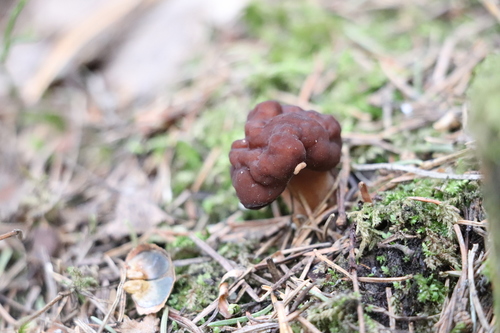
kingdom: Fungi
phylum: Ascomycota
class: Pezizomycetes
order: Pezizales
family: Discinaceae
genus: Gyromitra
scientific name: Gyromitra esculenta
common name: False morel
